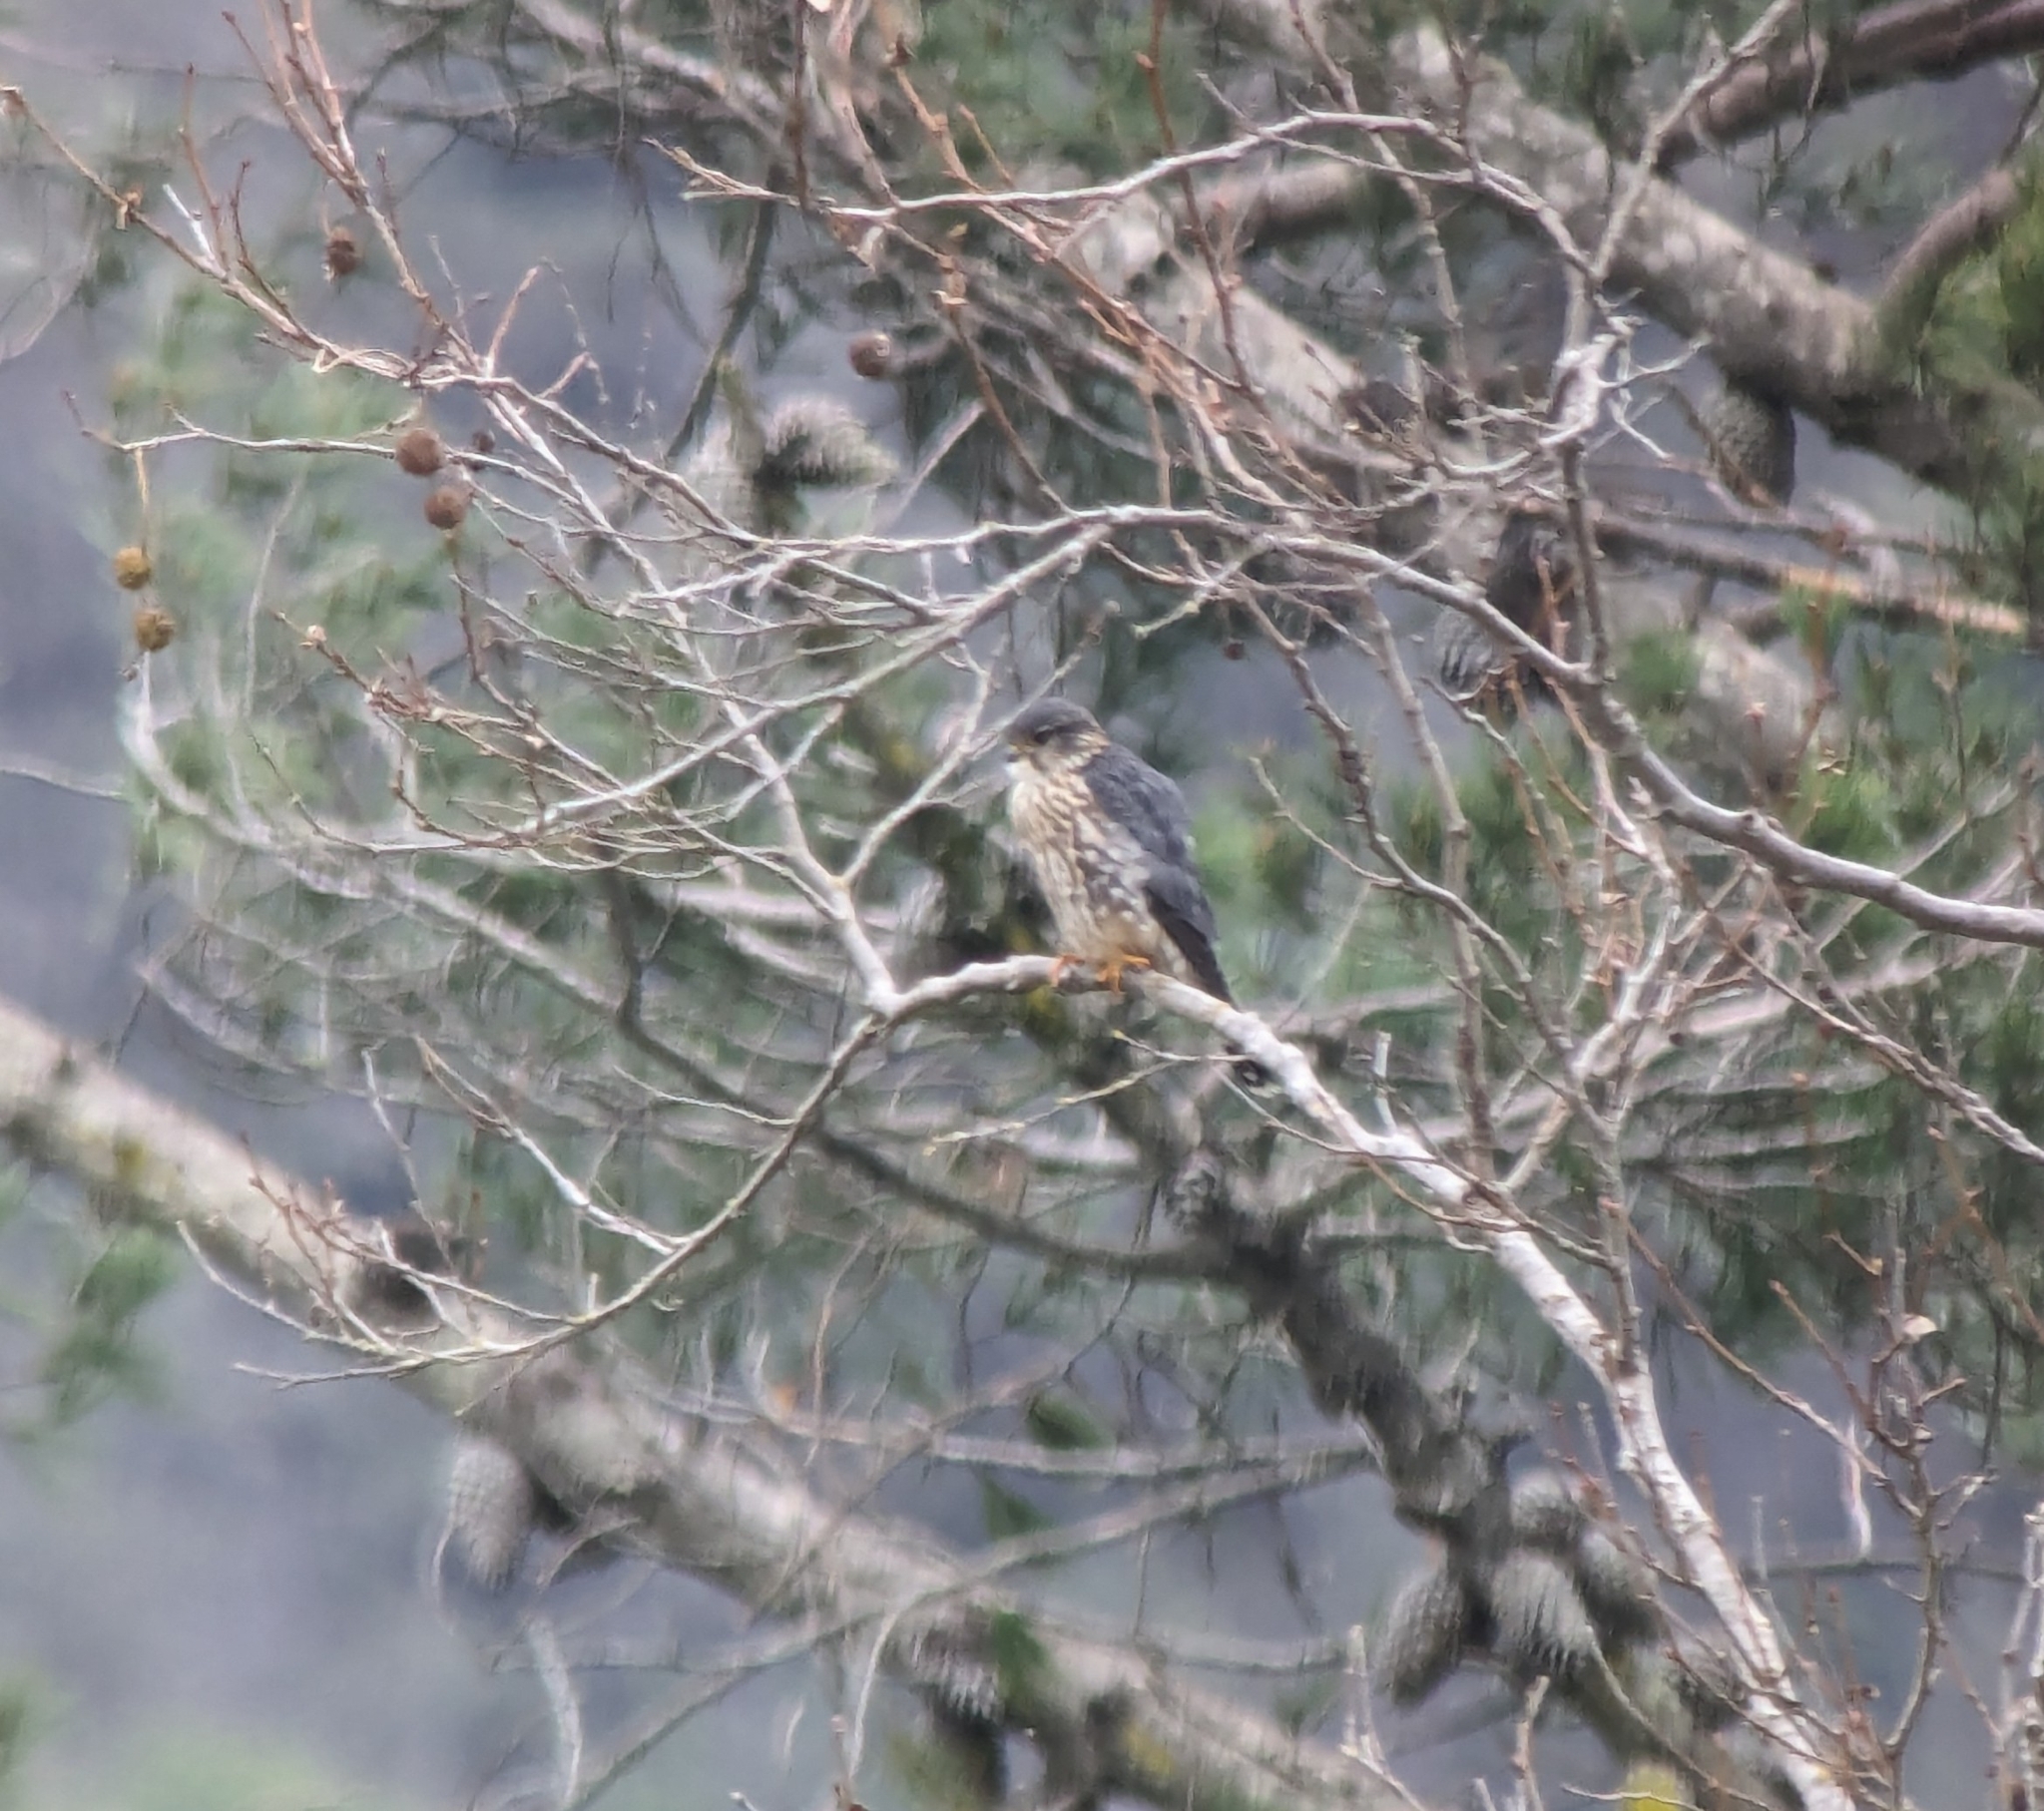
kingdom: Animalia
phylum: Chordata
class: Aves
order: Falconiformes
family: Falconidae
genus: Falco
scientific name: Falco columbarius
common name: Merlin
